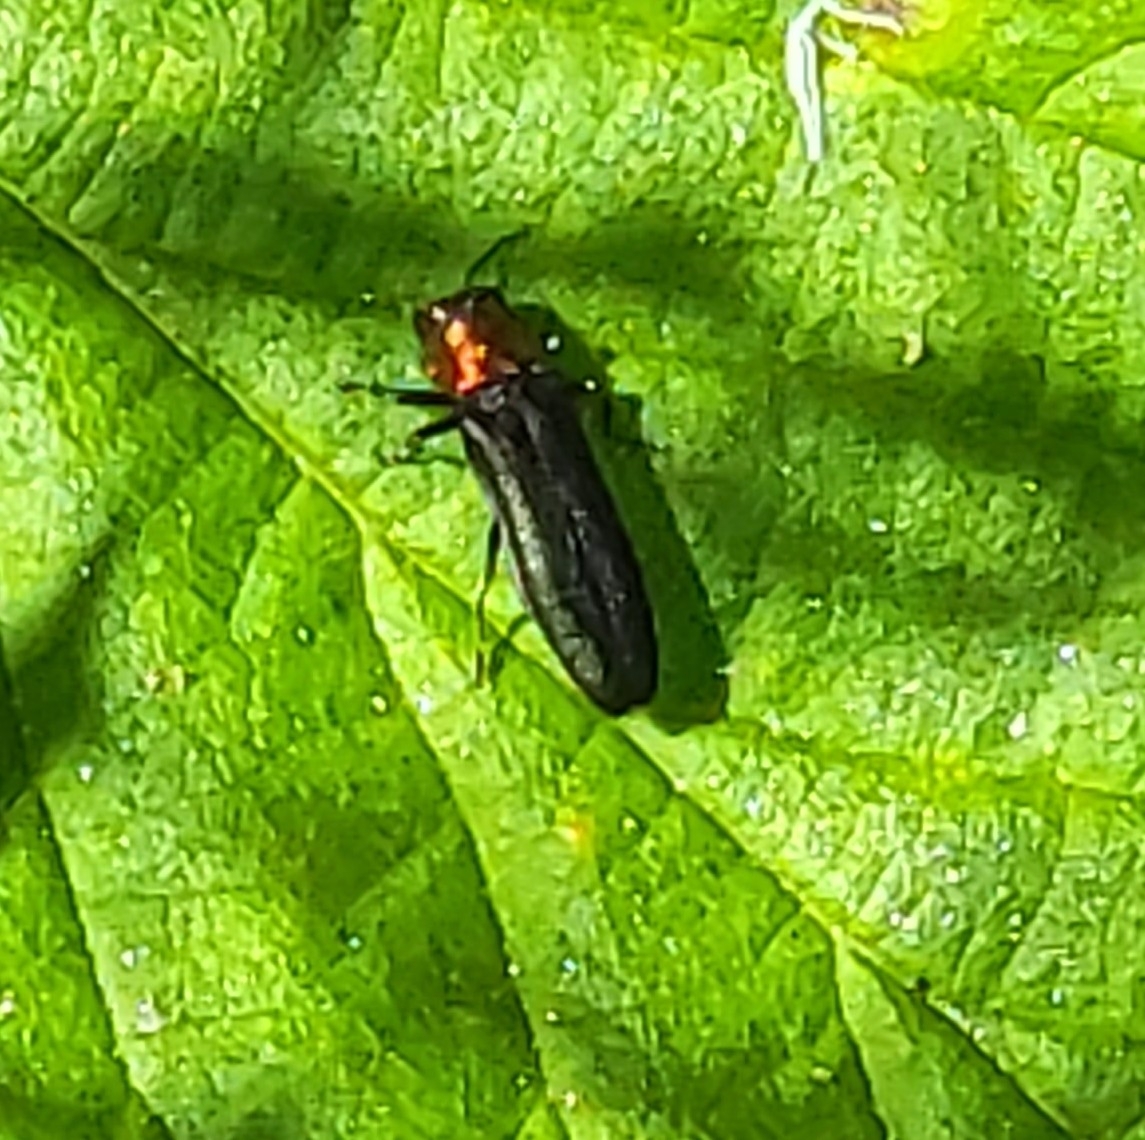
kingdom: Animalia
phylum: Arthropoda
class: Insecta
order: Coleoptera
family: Buprestidae
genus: Agrilus
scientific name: Agrilus ruficollis
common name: Red-necked cane borer beetle
